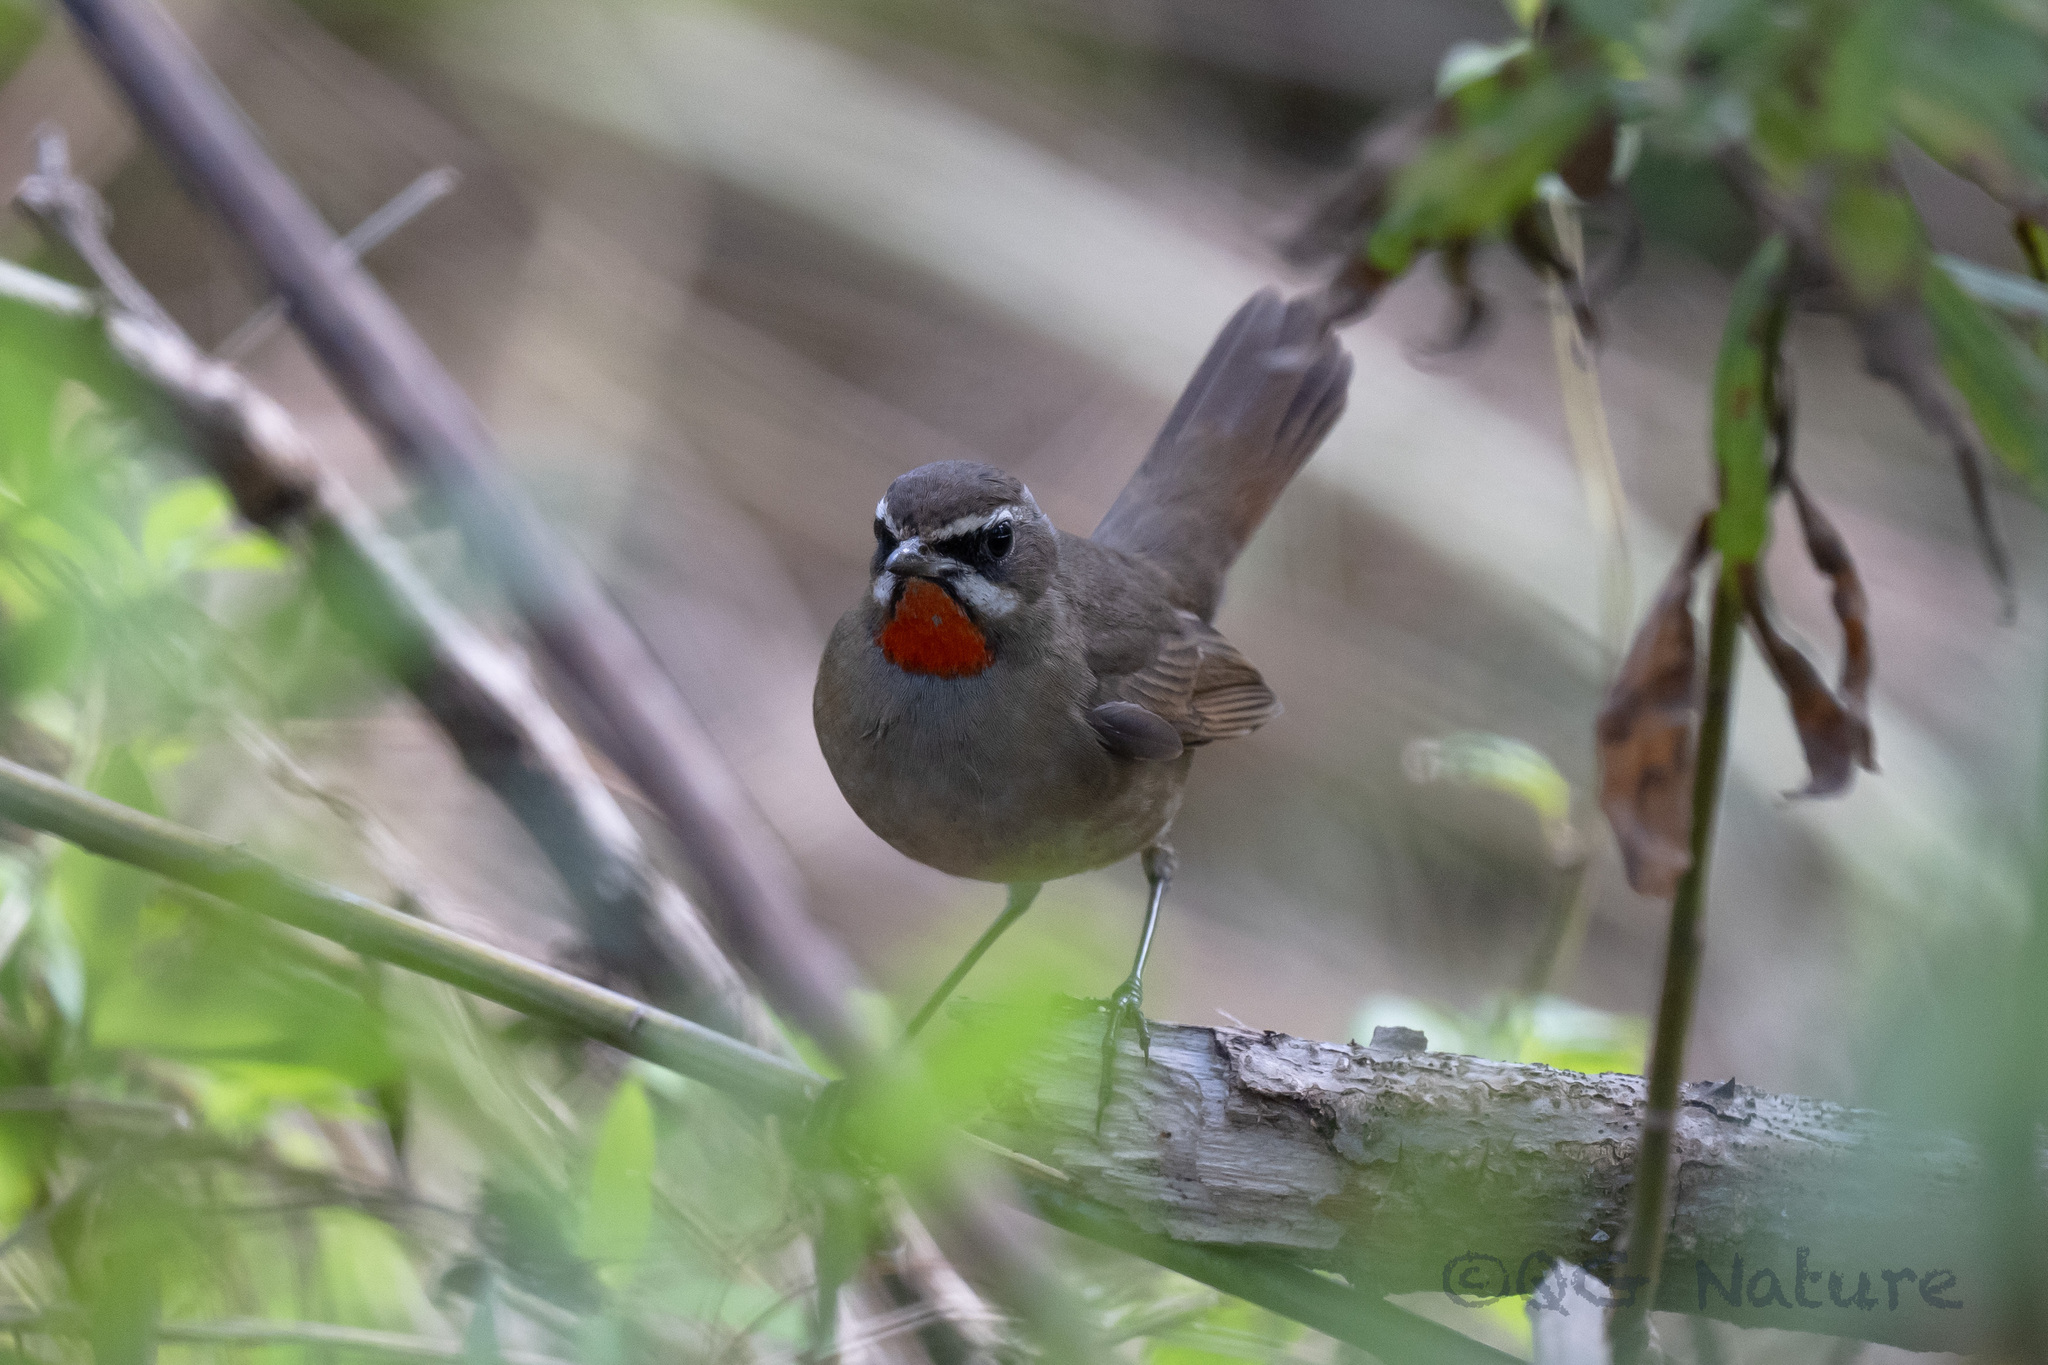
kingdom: Animalia
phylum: Chordata
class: Aves
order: Passeriformes
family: Muscicapidae
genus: Luscinia
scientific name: Luscinia calliope
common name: Siberian rubythroat
